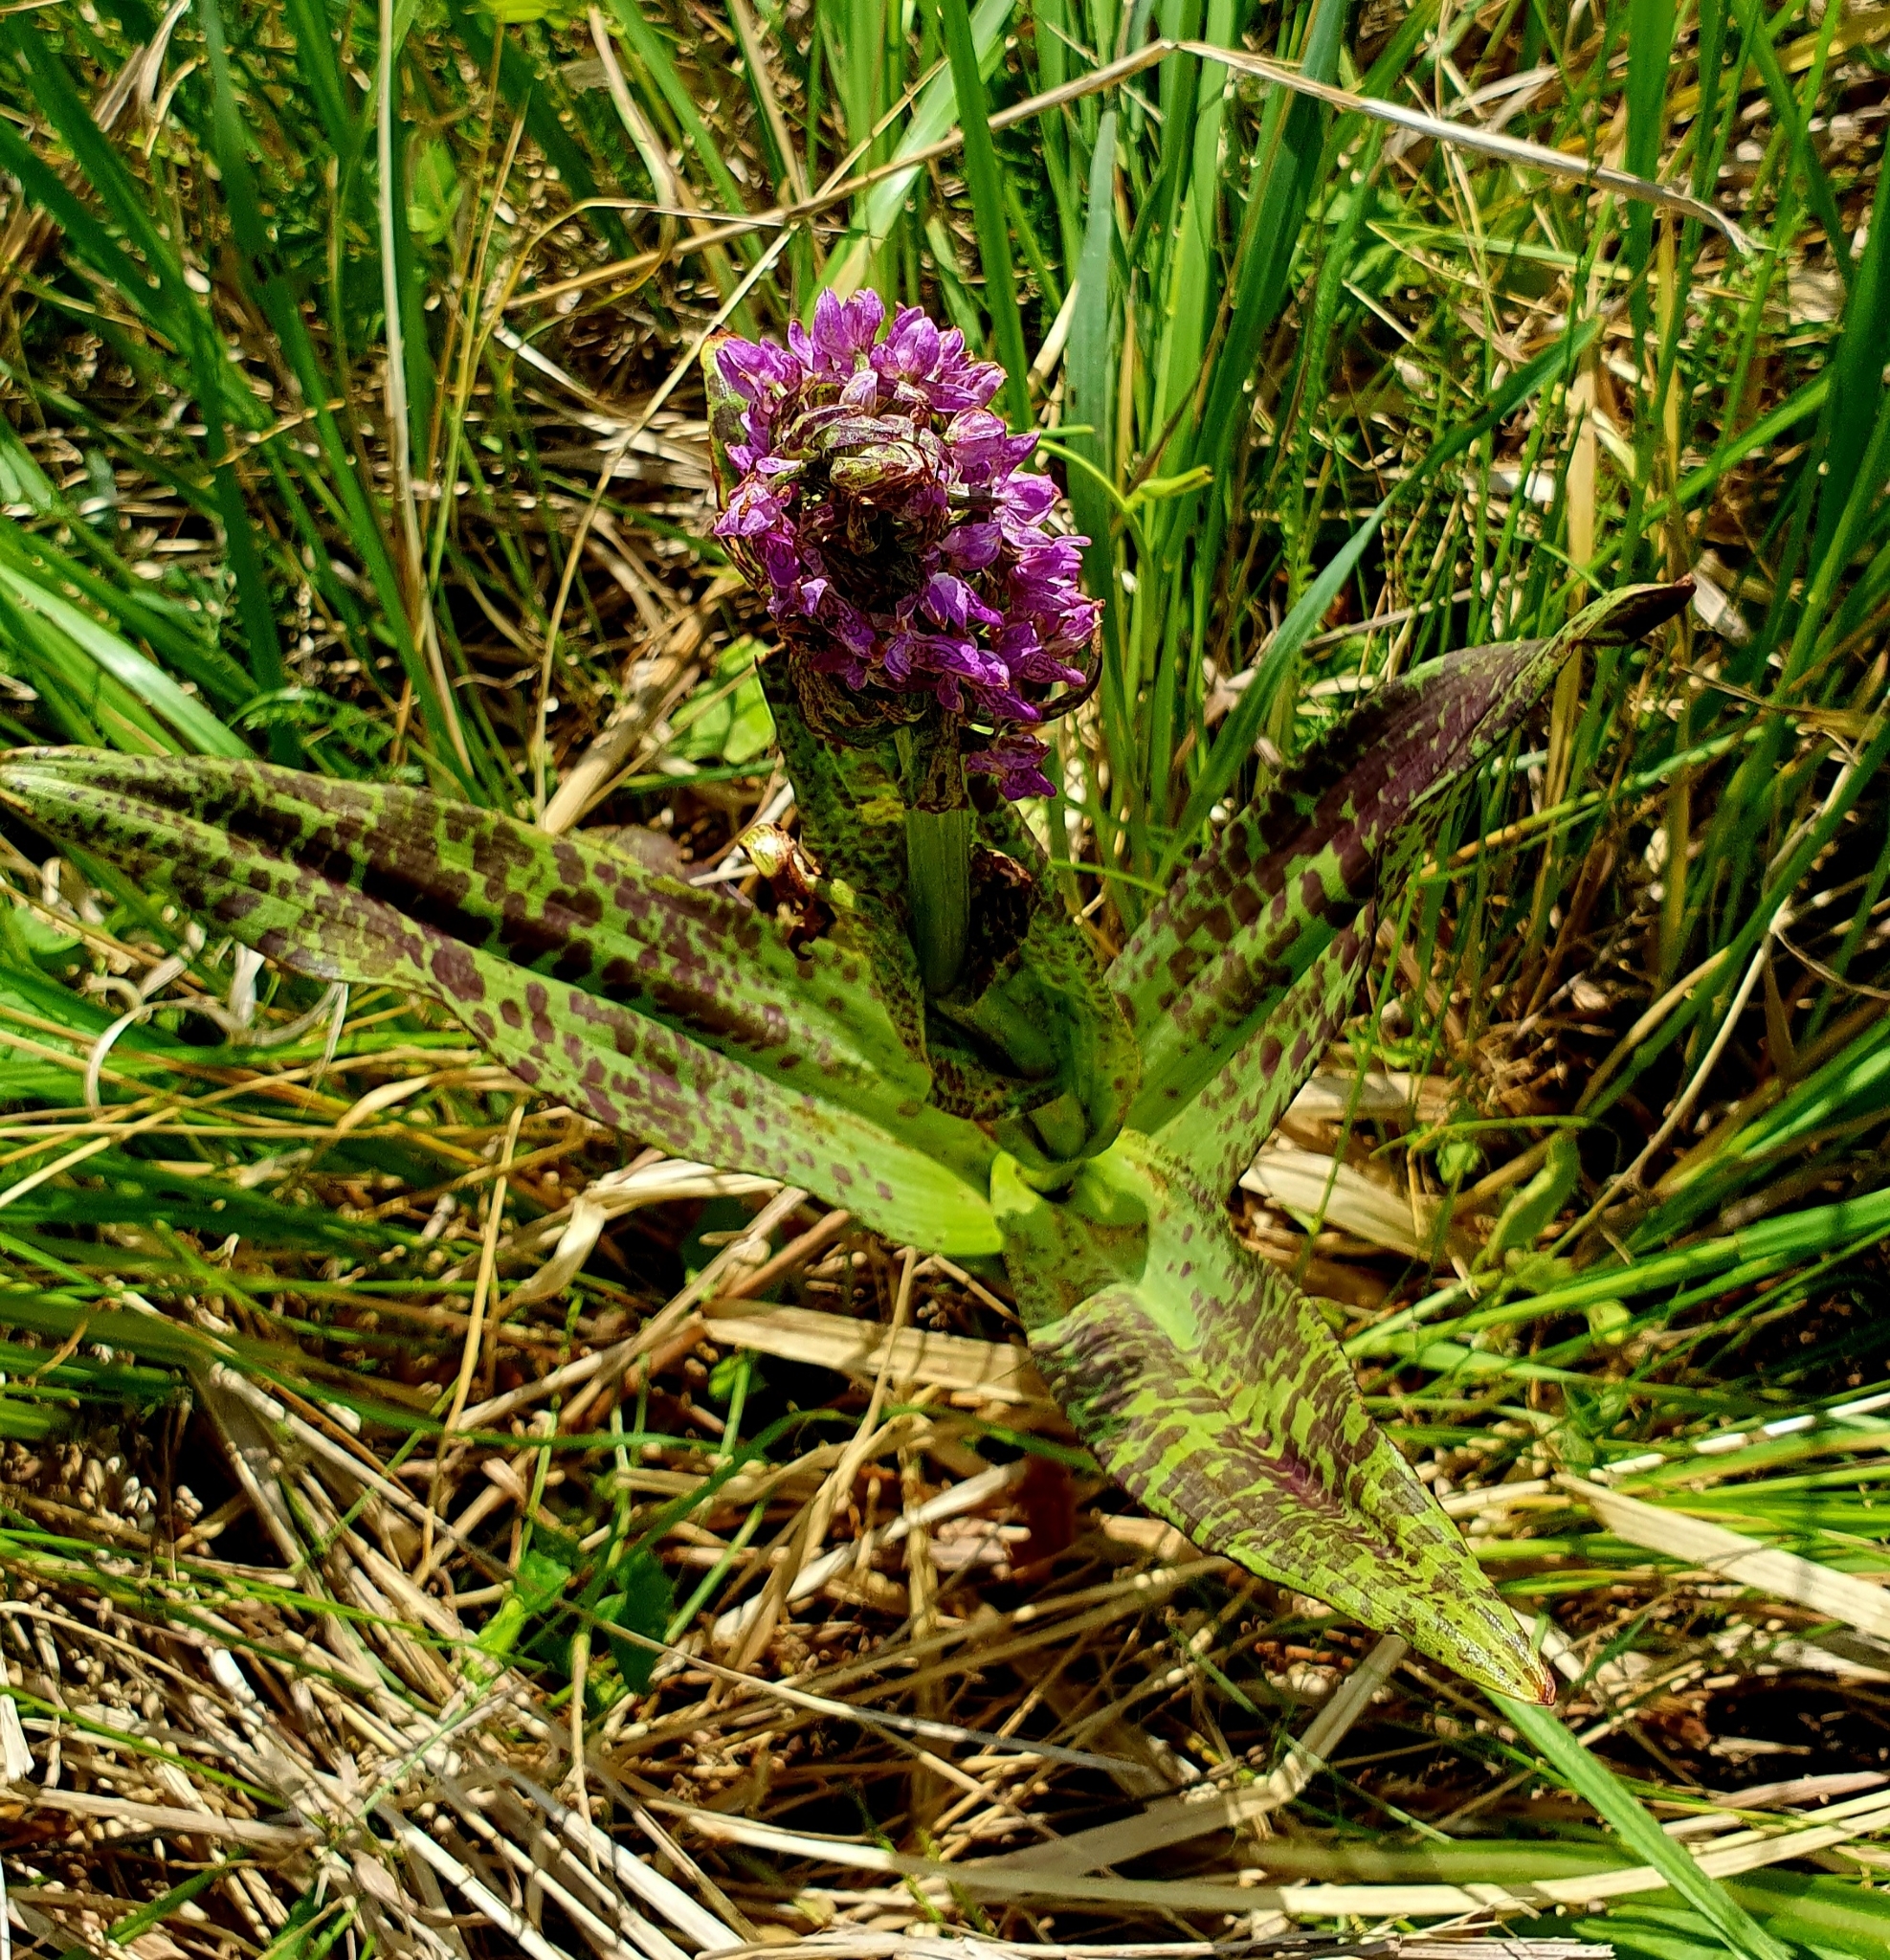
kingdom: Plantae
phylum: Tracheophyta
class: Liliopsida
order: Asparagales
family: Orchidaceae
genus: Dactylorhiza
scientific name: Dactylorhiza incarnata
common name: Early marsh-orchid
